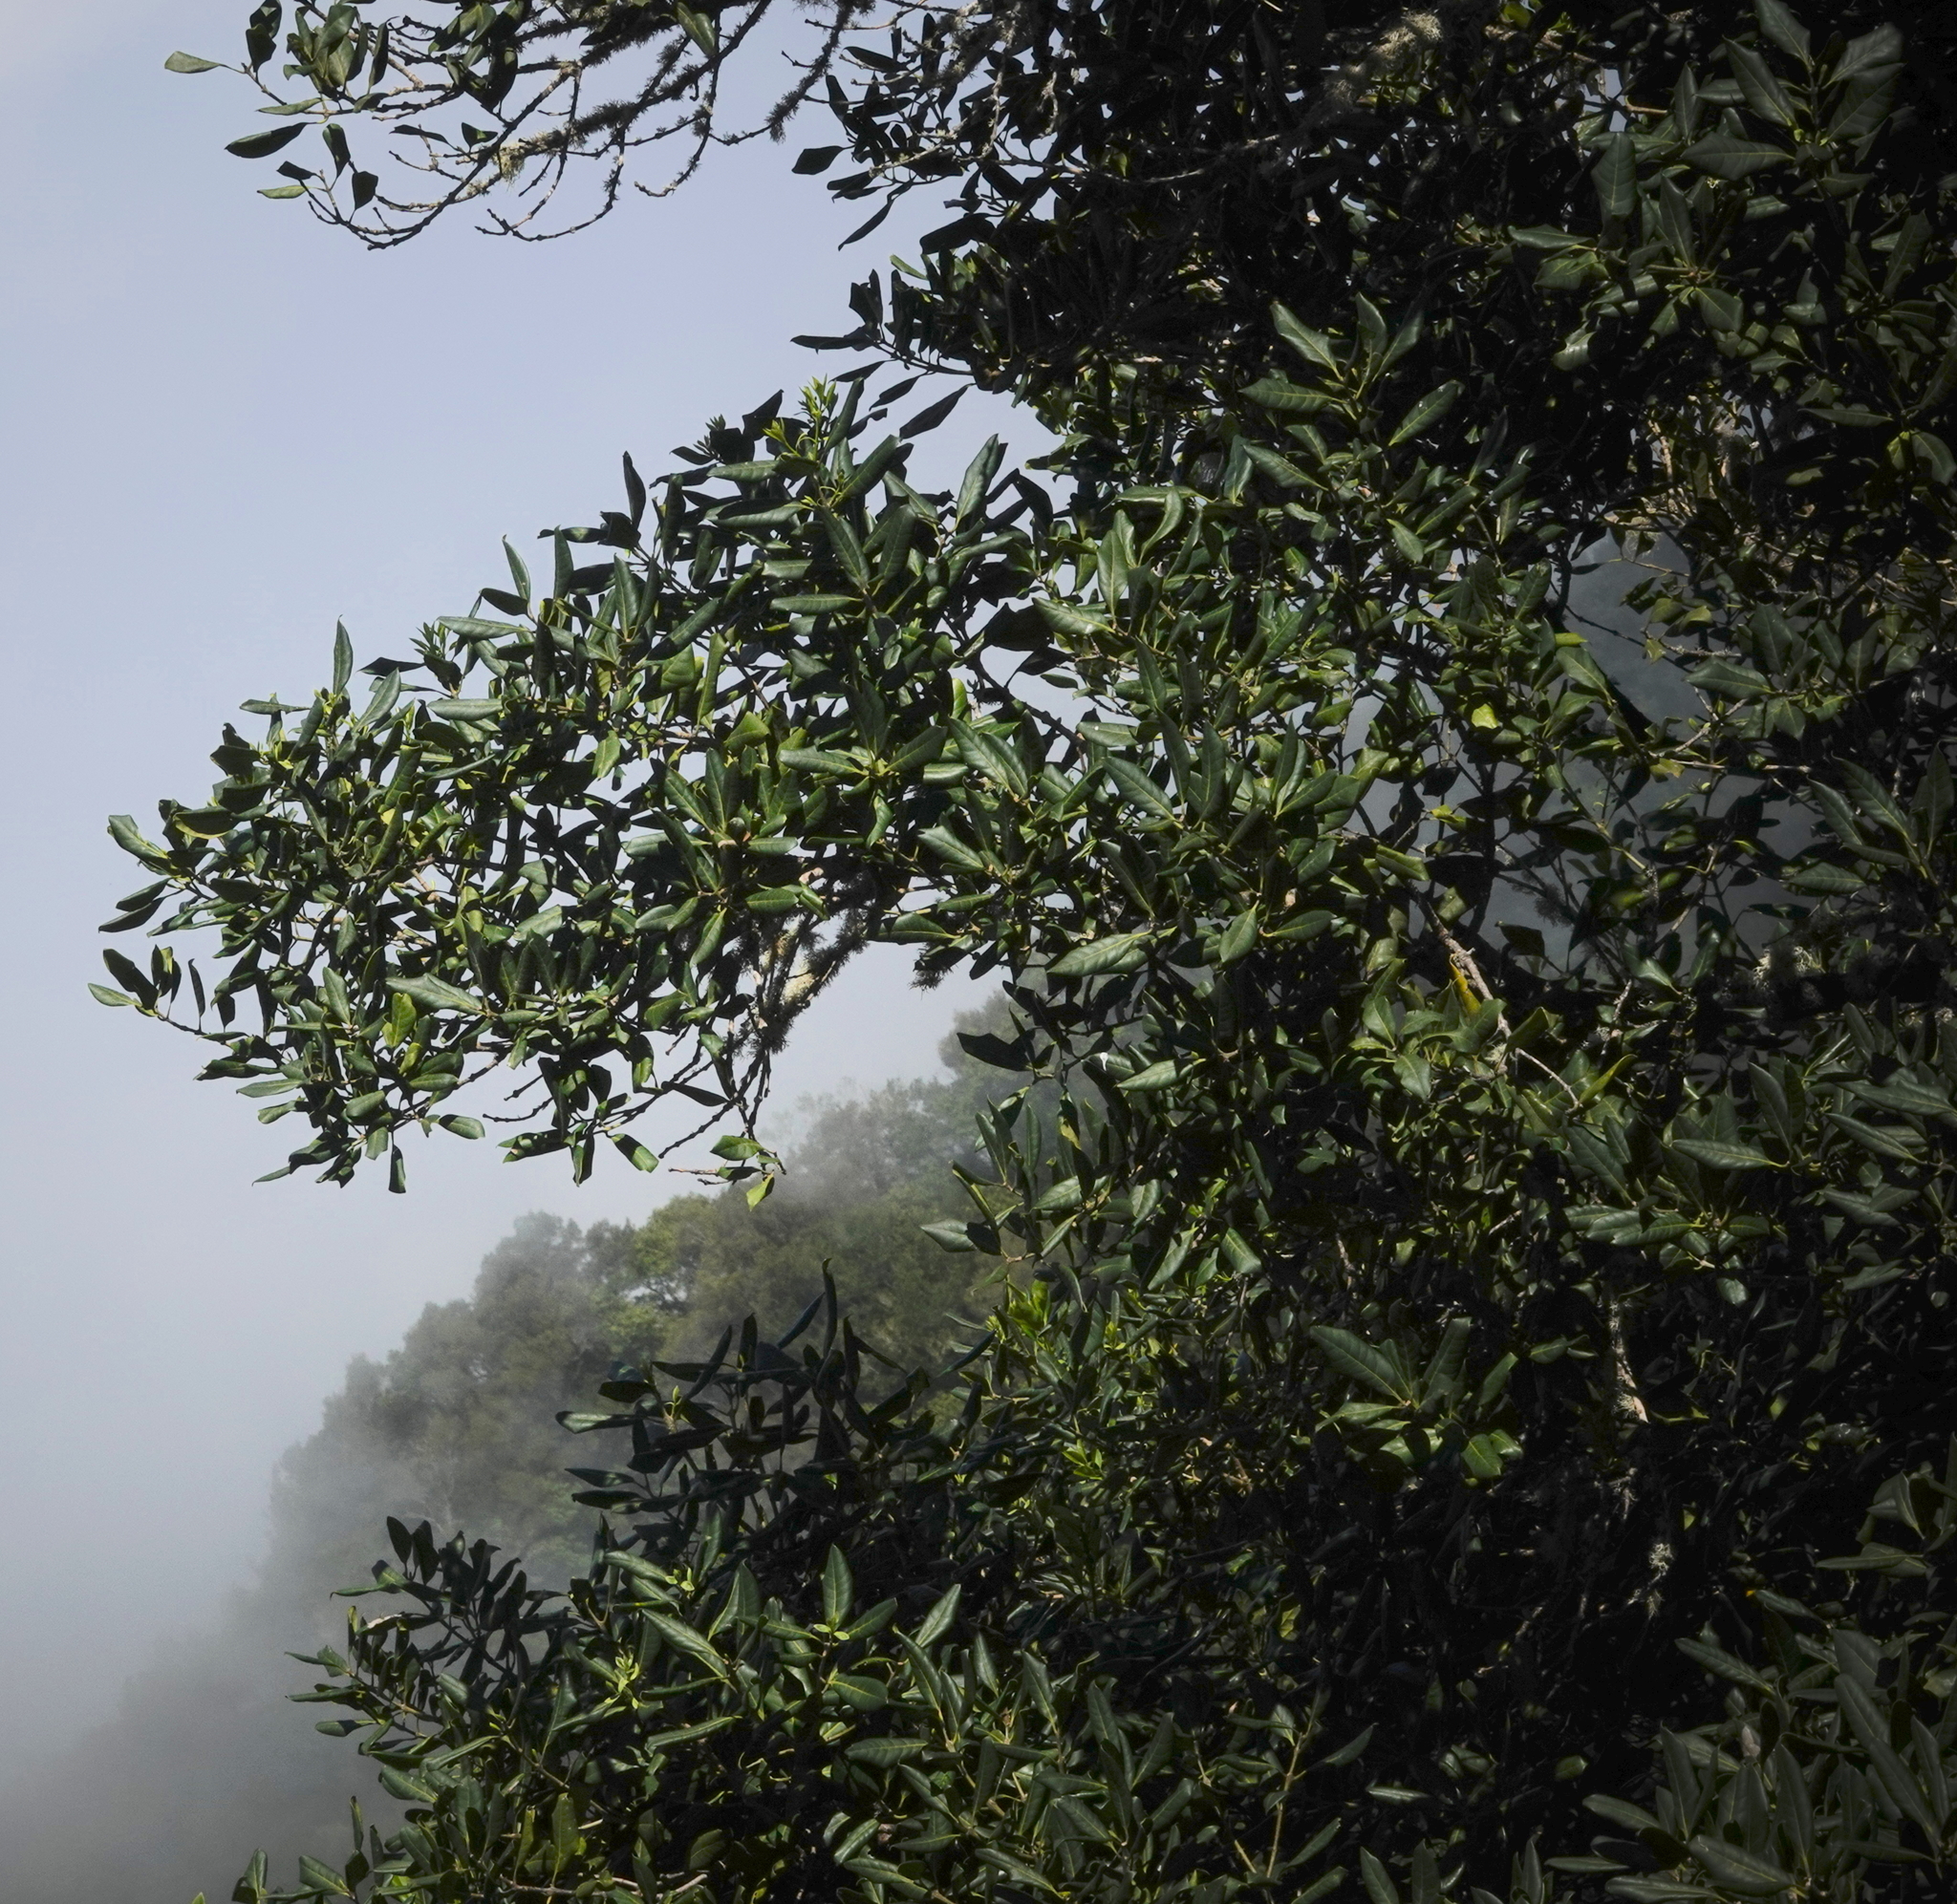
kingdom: Plantae
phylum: Tracheophyta
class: Magnoliopsida
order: Lamiales
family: Oleaceae
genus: Picconia
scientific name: Picconia excelsa
